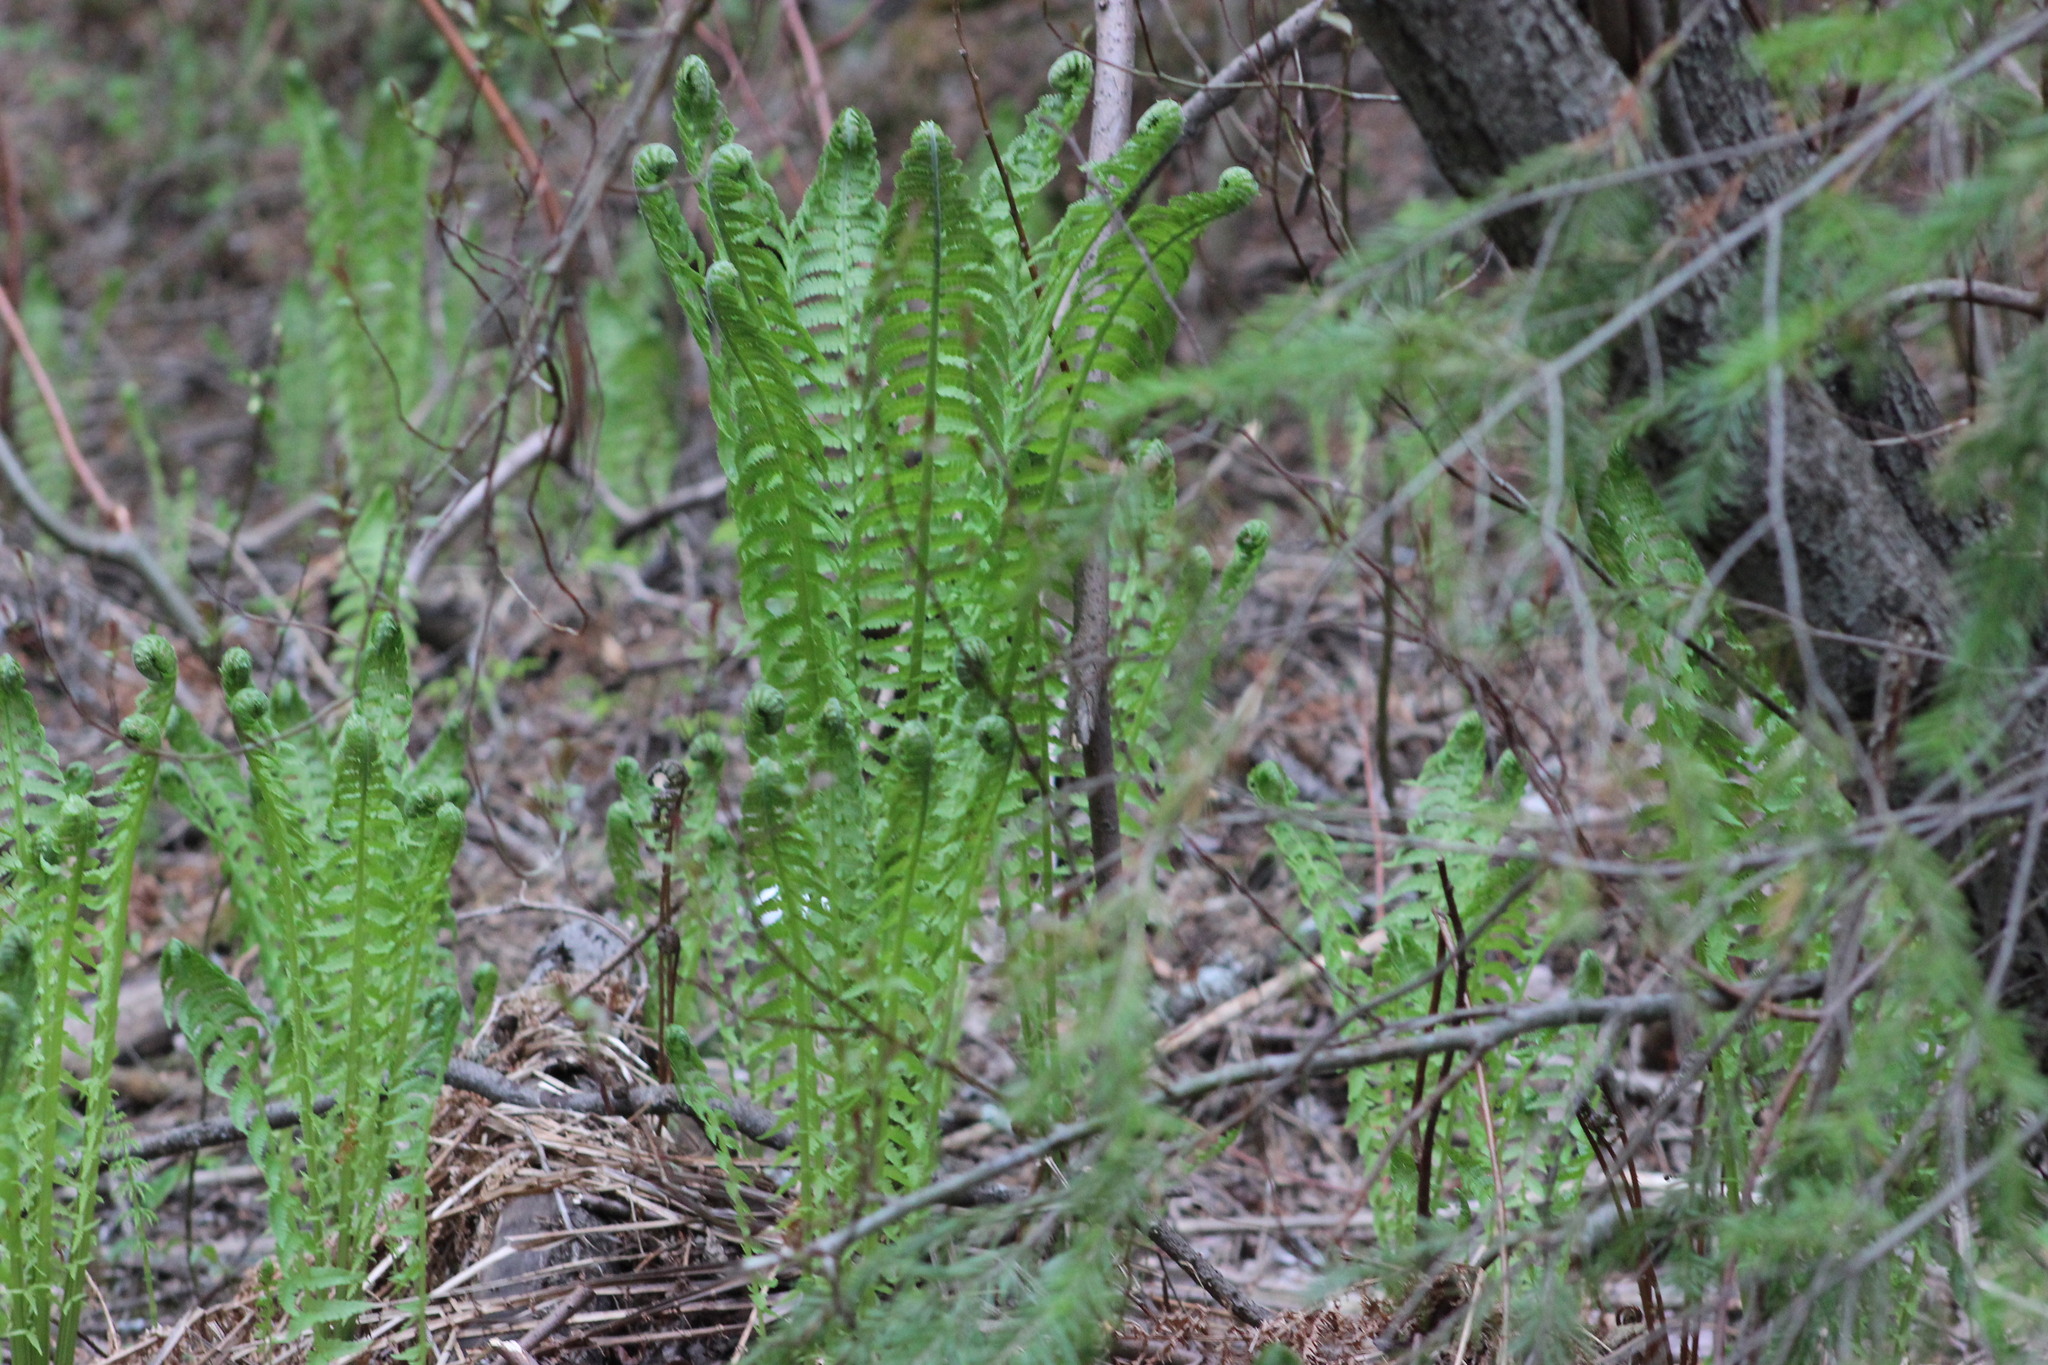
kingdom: Plantae
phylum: Tracheophyta
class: Polypodiopsida
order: Polypodiales
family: Onocleaceae
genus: Matteuccia
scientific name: Matteuccia struthiopteris
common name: Ostrich fern
